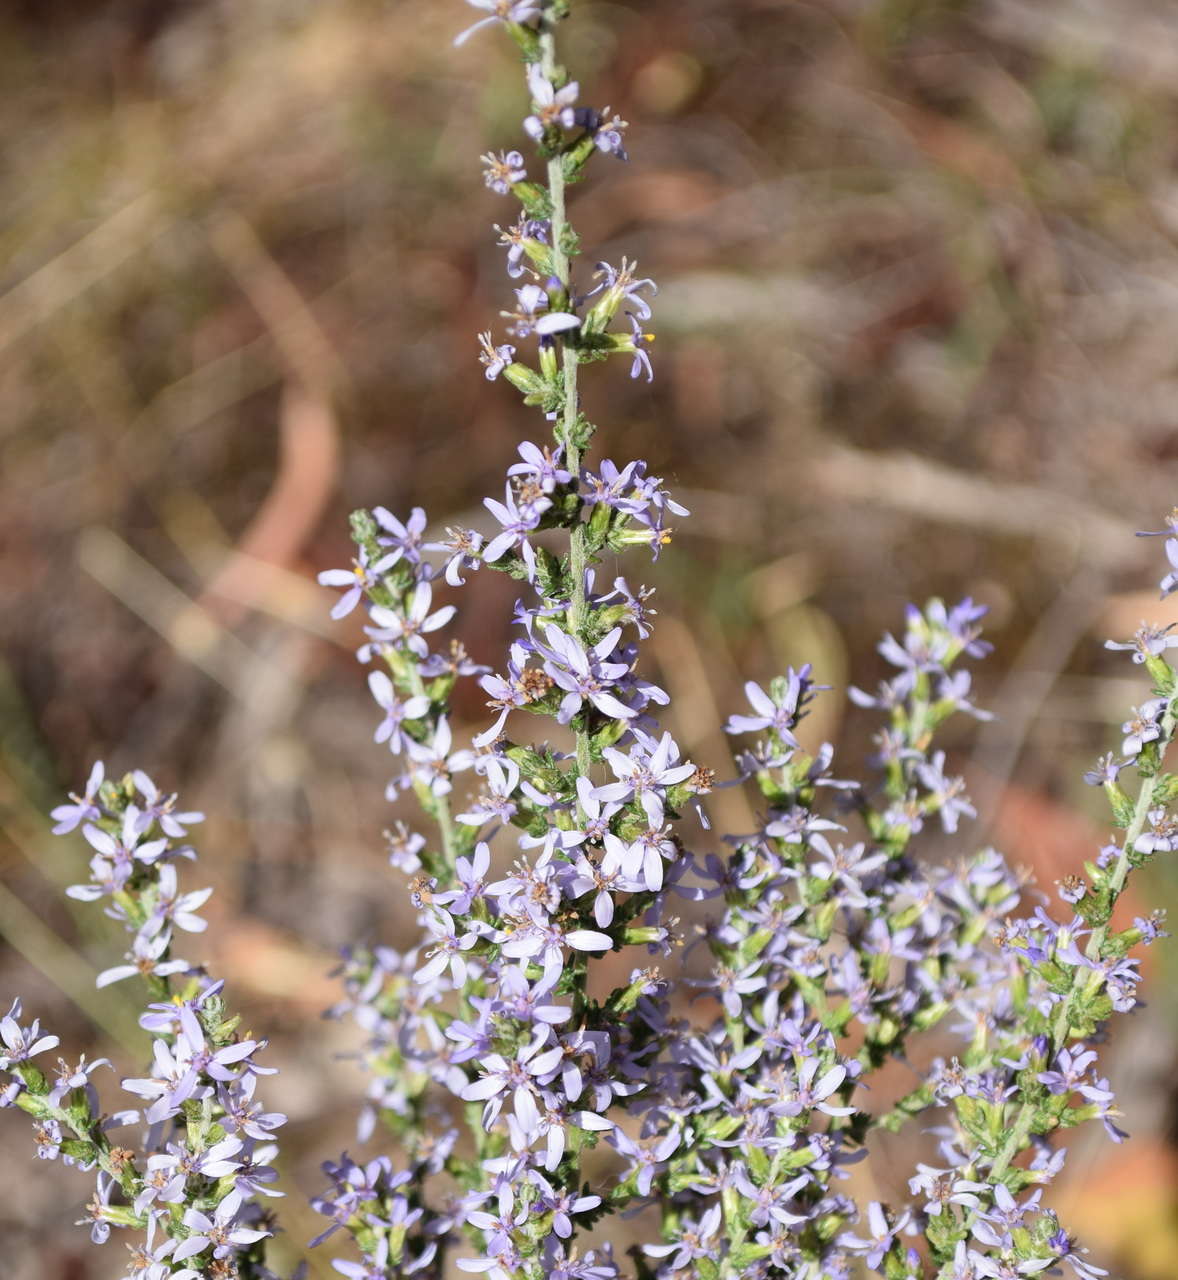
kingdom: Plantae
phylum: Tracheophyta
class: Magnoliopsida
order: Asterales
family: Asteraceae
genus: Olearia
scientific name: Olearia lanuginosa
